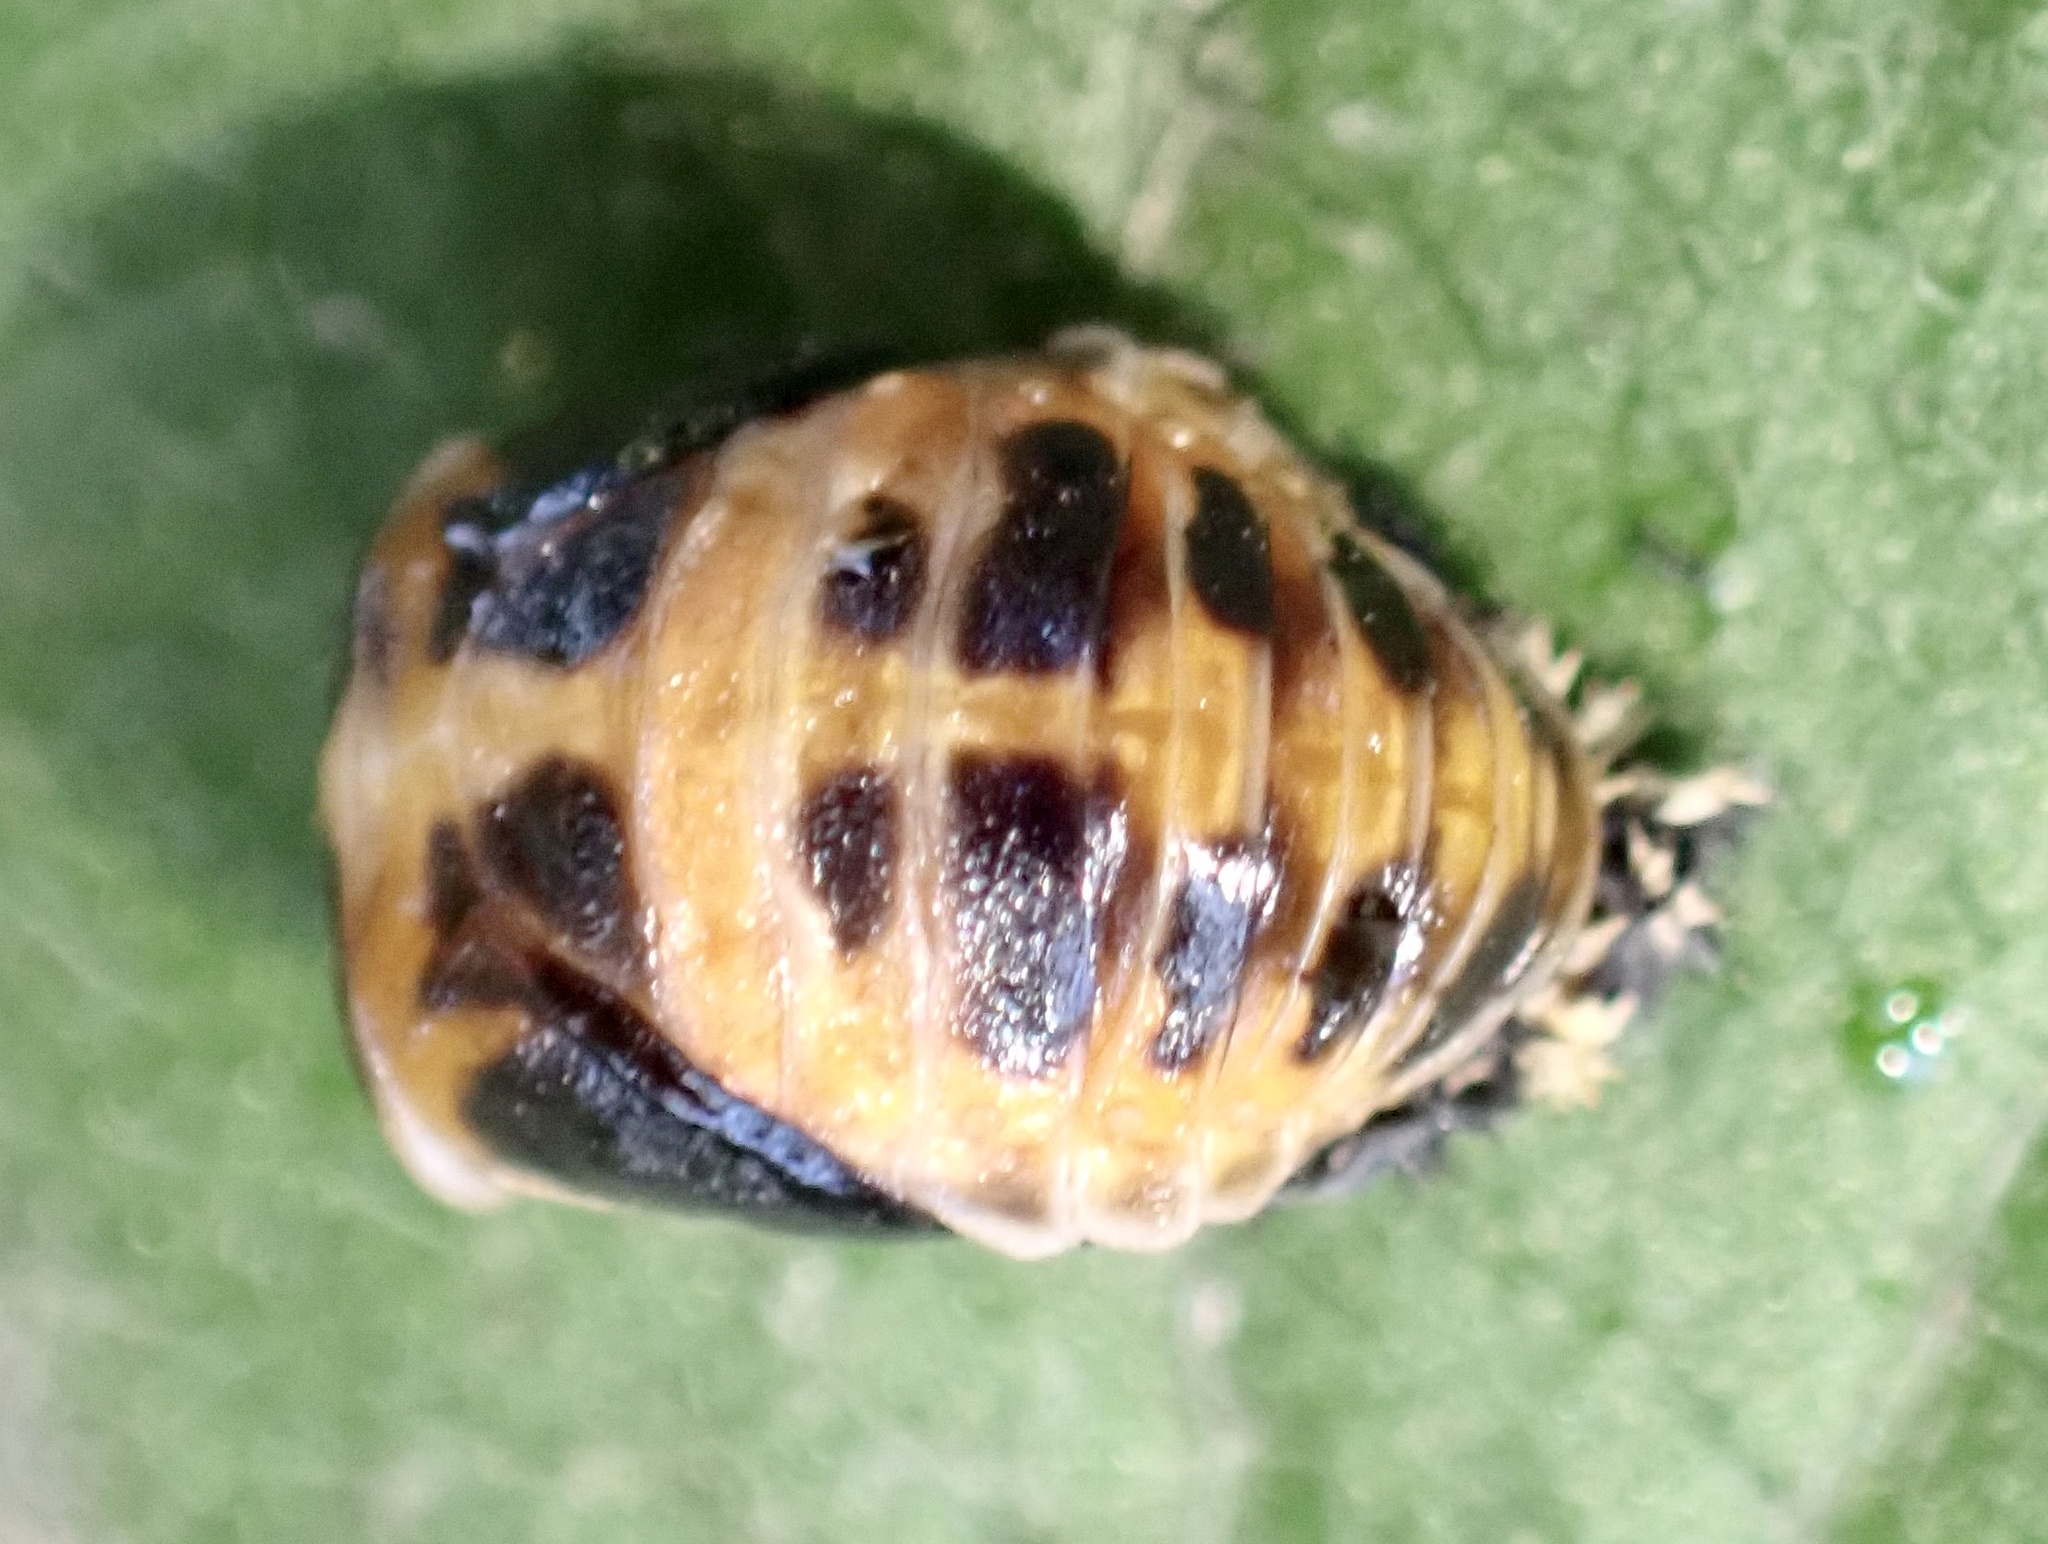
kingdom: Animalia
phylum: Arthropoda
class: Insecta
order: Coleoptera
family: Coccinellidae
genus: Harmonia
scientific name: Harmonia axyridis
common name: Harlequin ladybird
